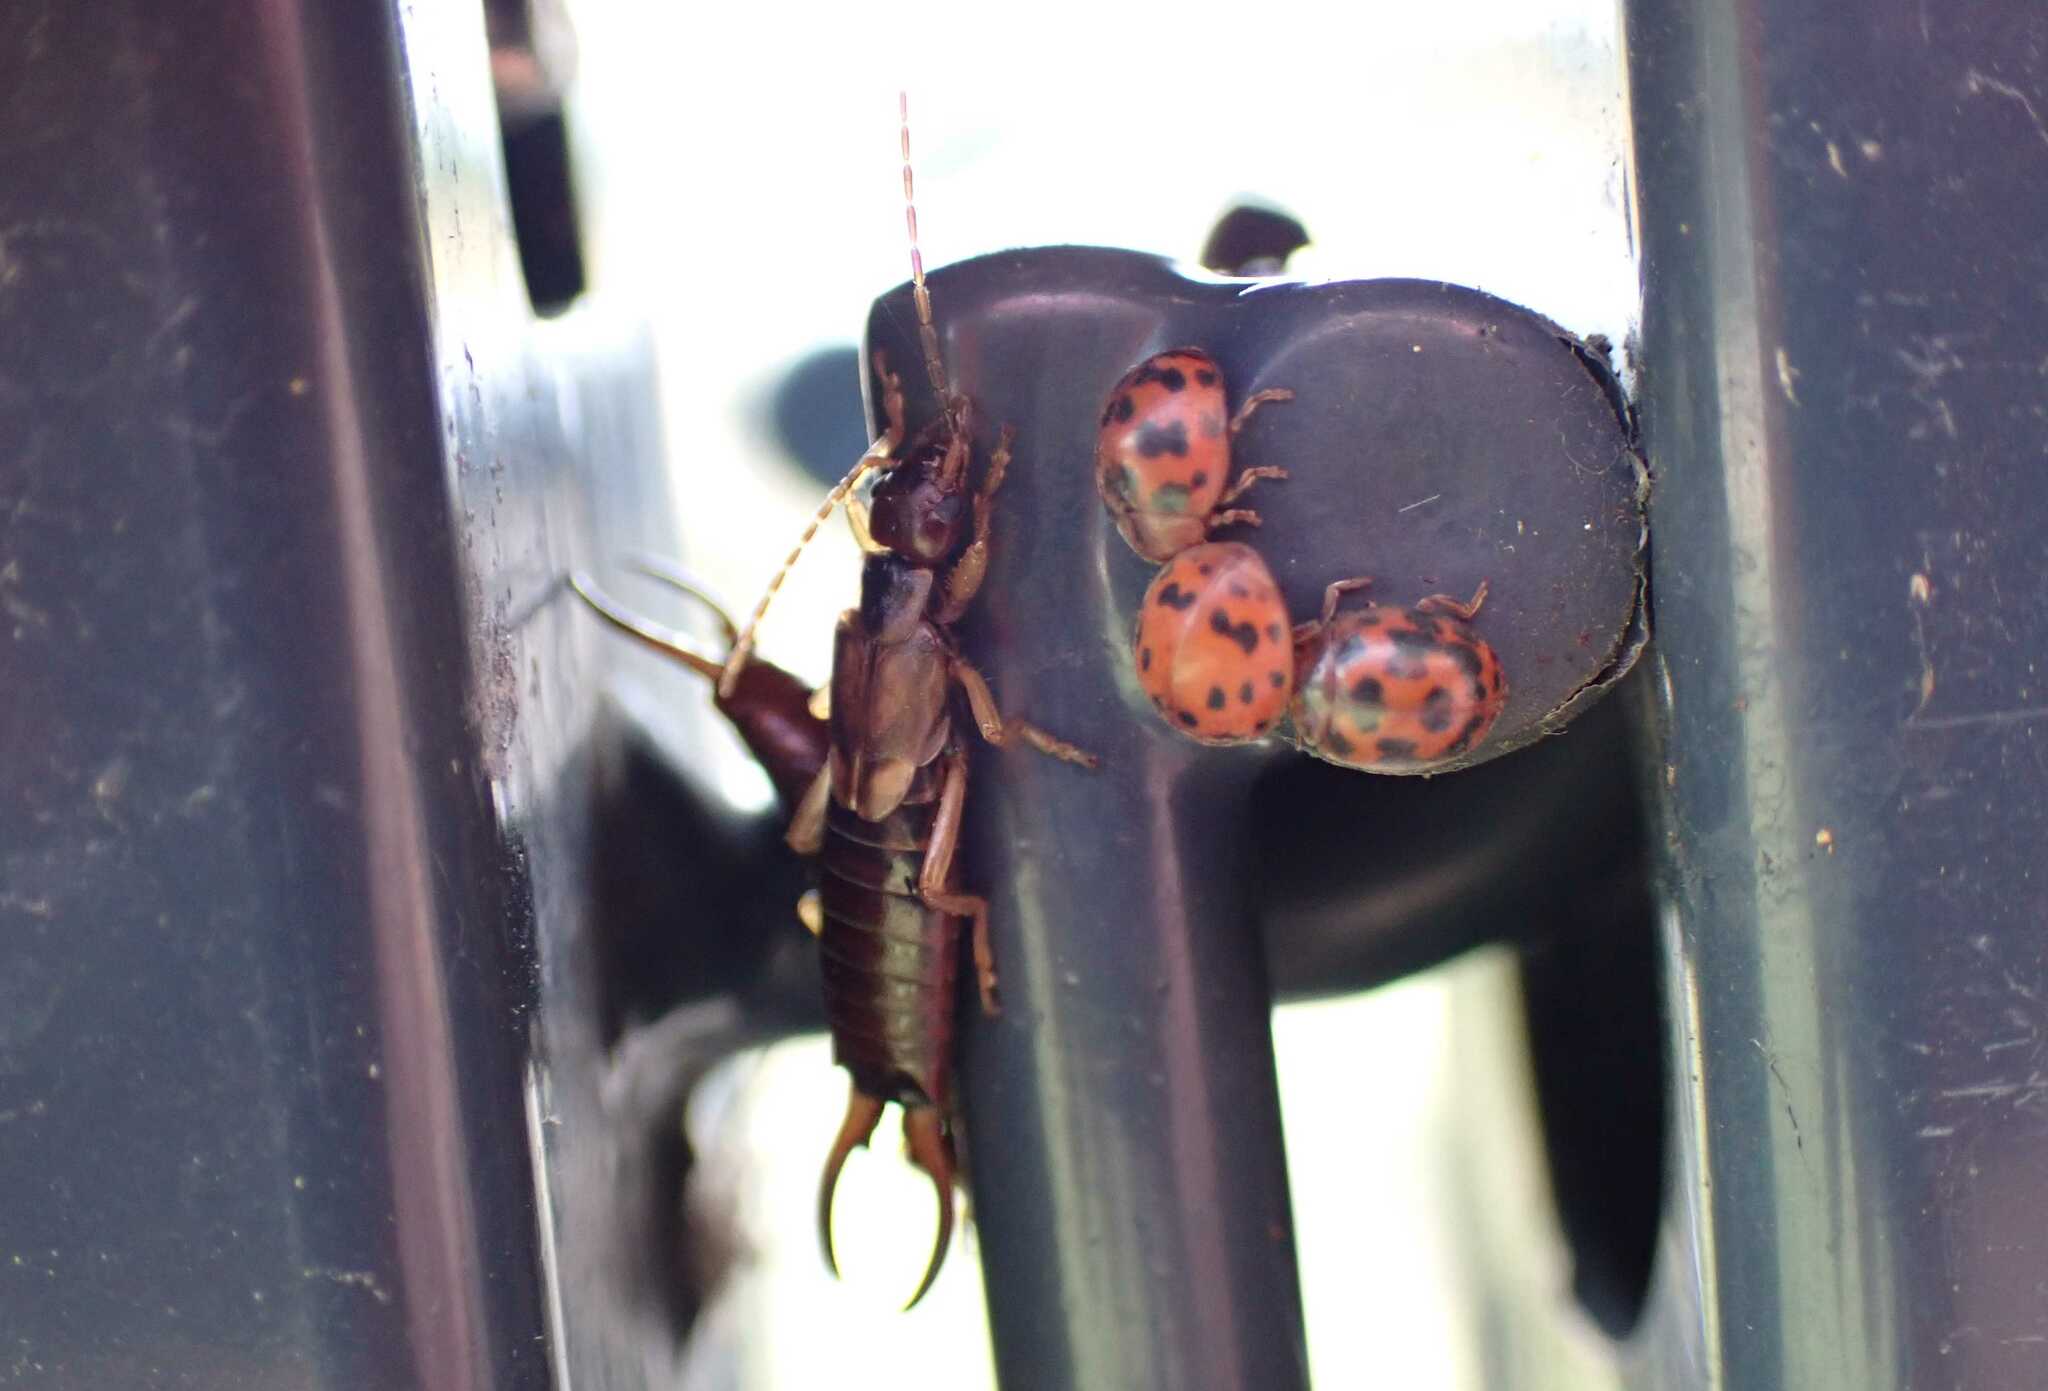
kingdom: Animalia
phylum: Arthropoda
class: Insecta
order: Dermaptera
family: Forficulidae
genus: Forficula
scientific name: Forficula
